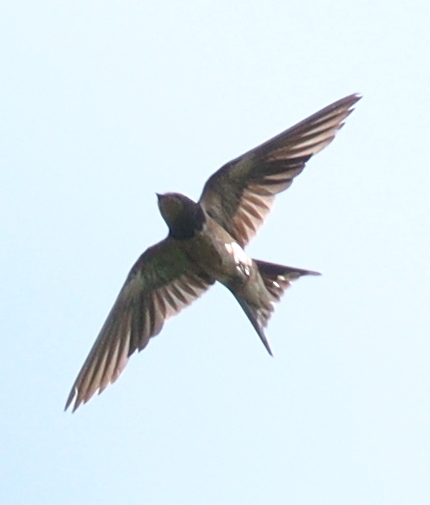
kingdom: Animalia
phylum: Chordata
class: Aves
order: Passeriformes
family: Hirundinidae
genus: Hirundo
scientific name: Hirundo rustica
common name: Barn swallow
